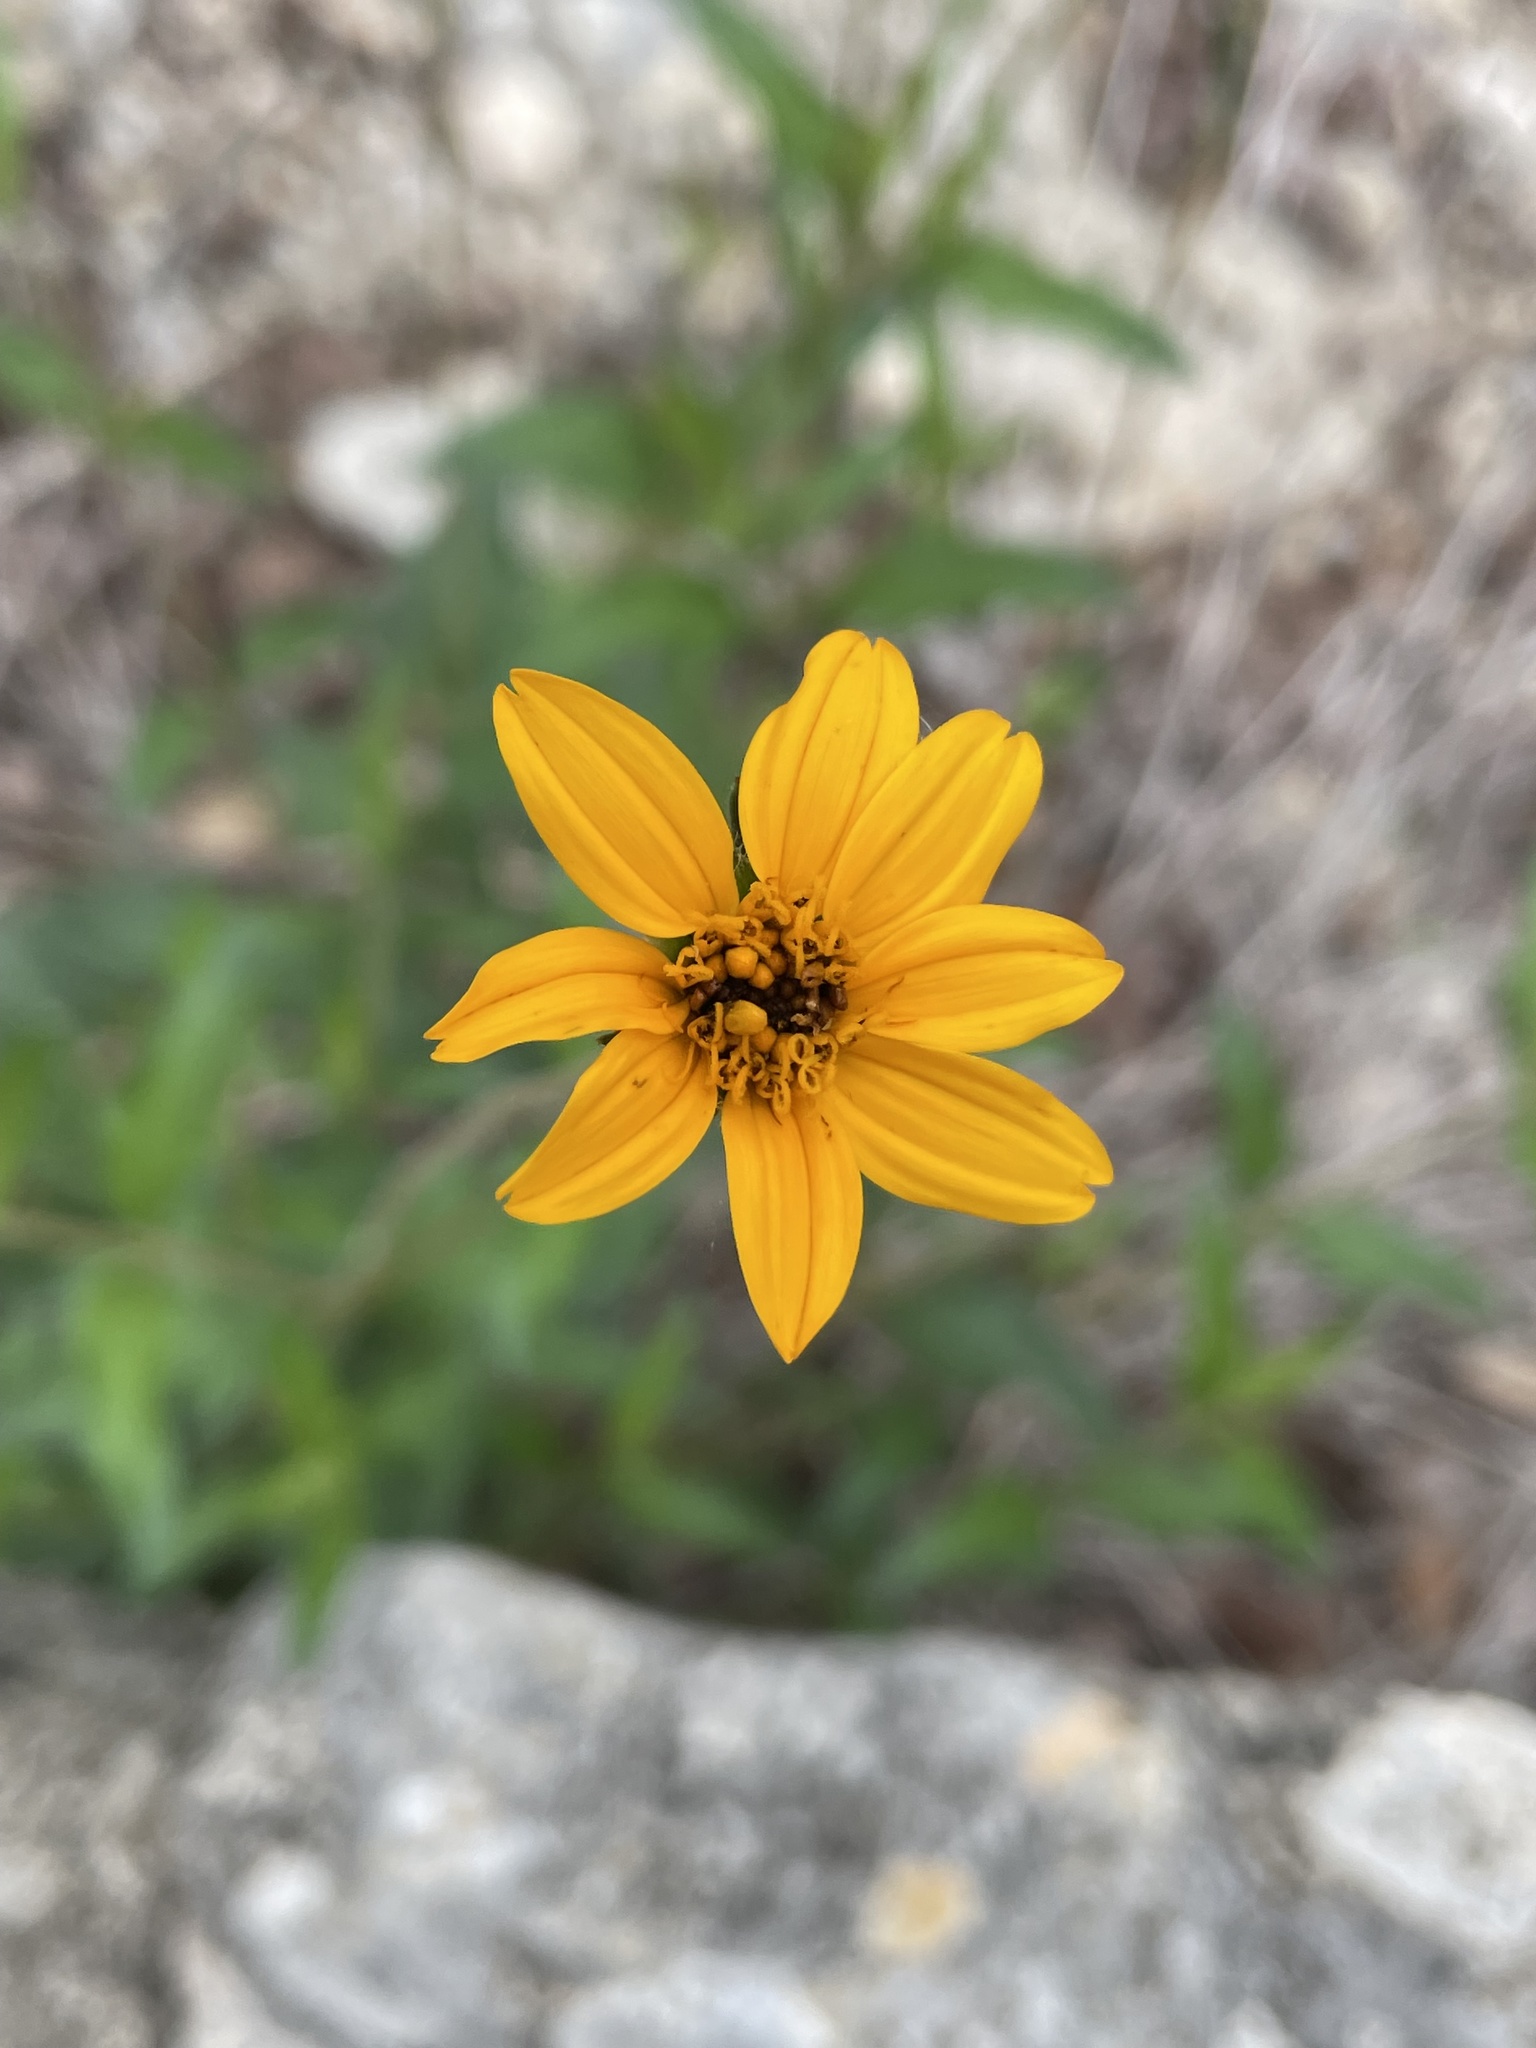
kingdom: Plantae
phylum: Tracheophyta
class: Magnoliopsida
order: Asterales
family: Asteraceae
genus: Wedelia
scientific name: Wedelia acapulcensis
